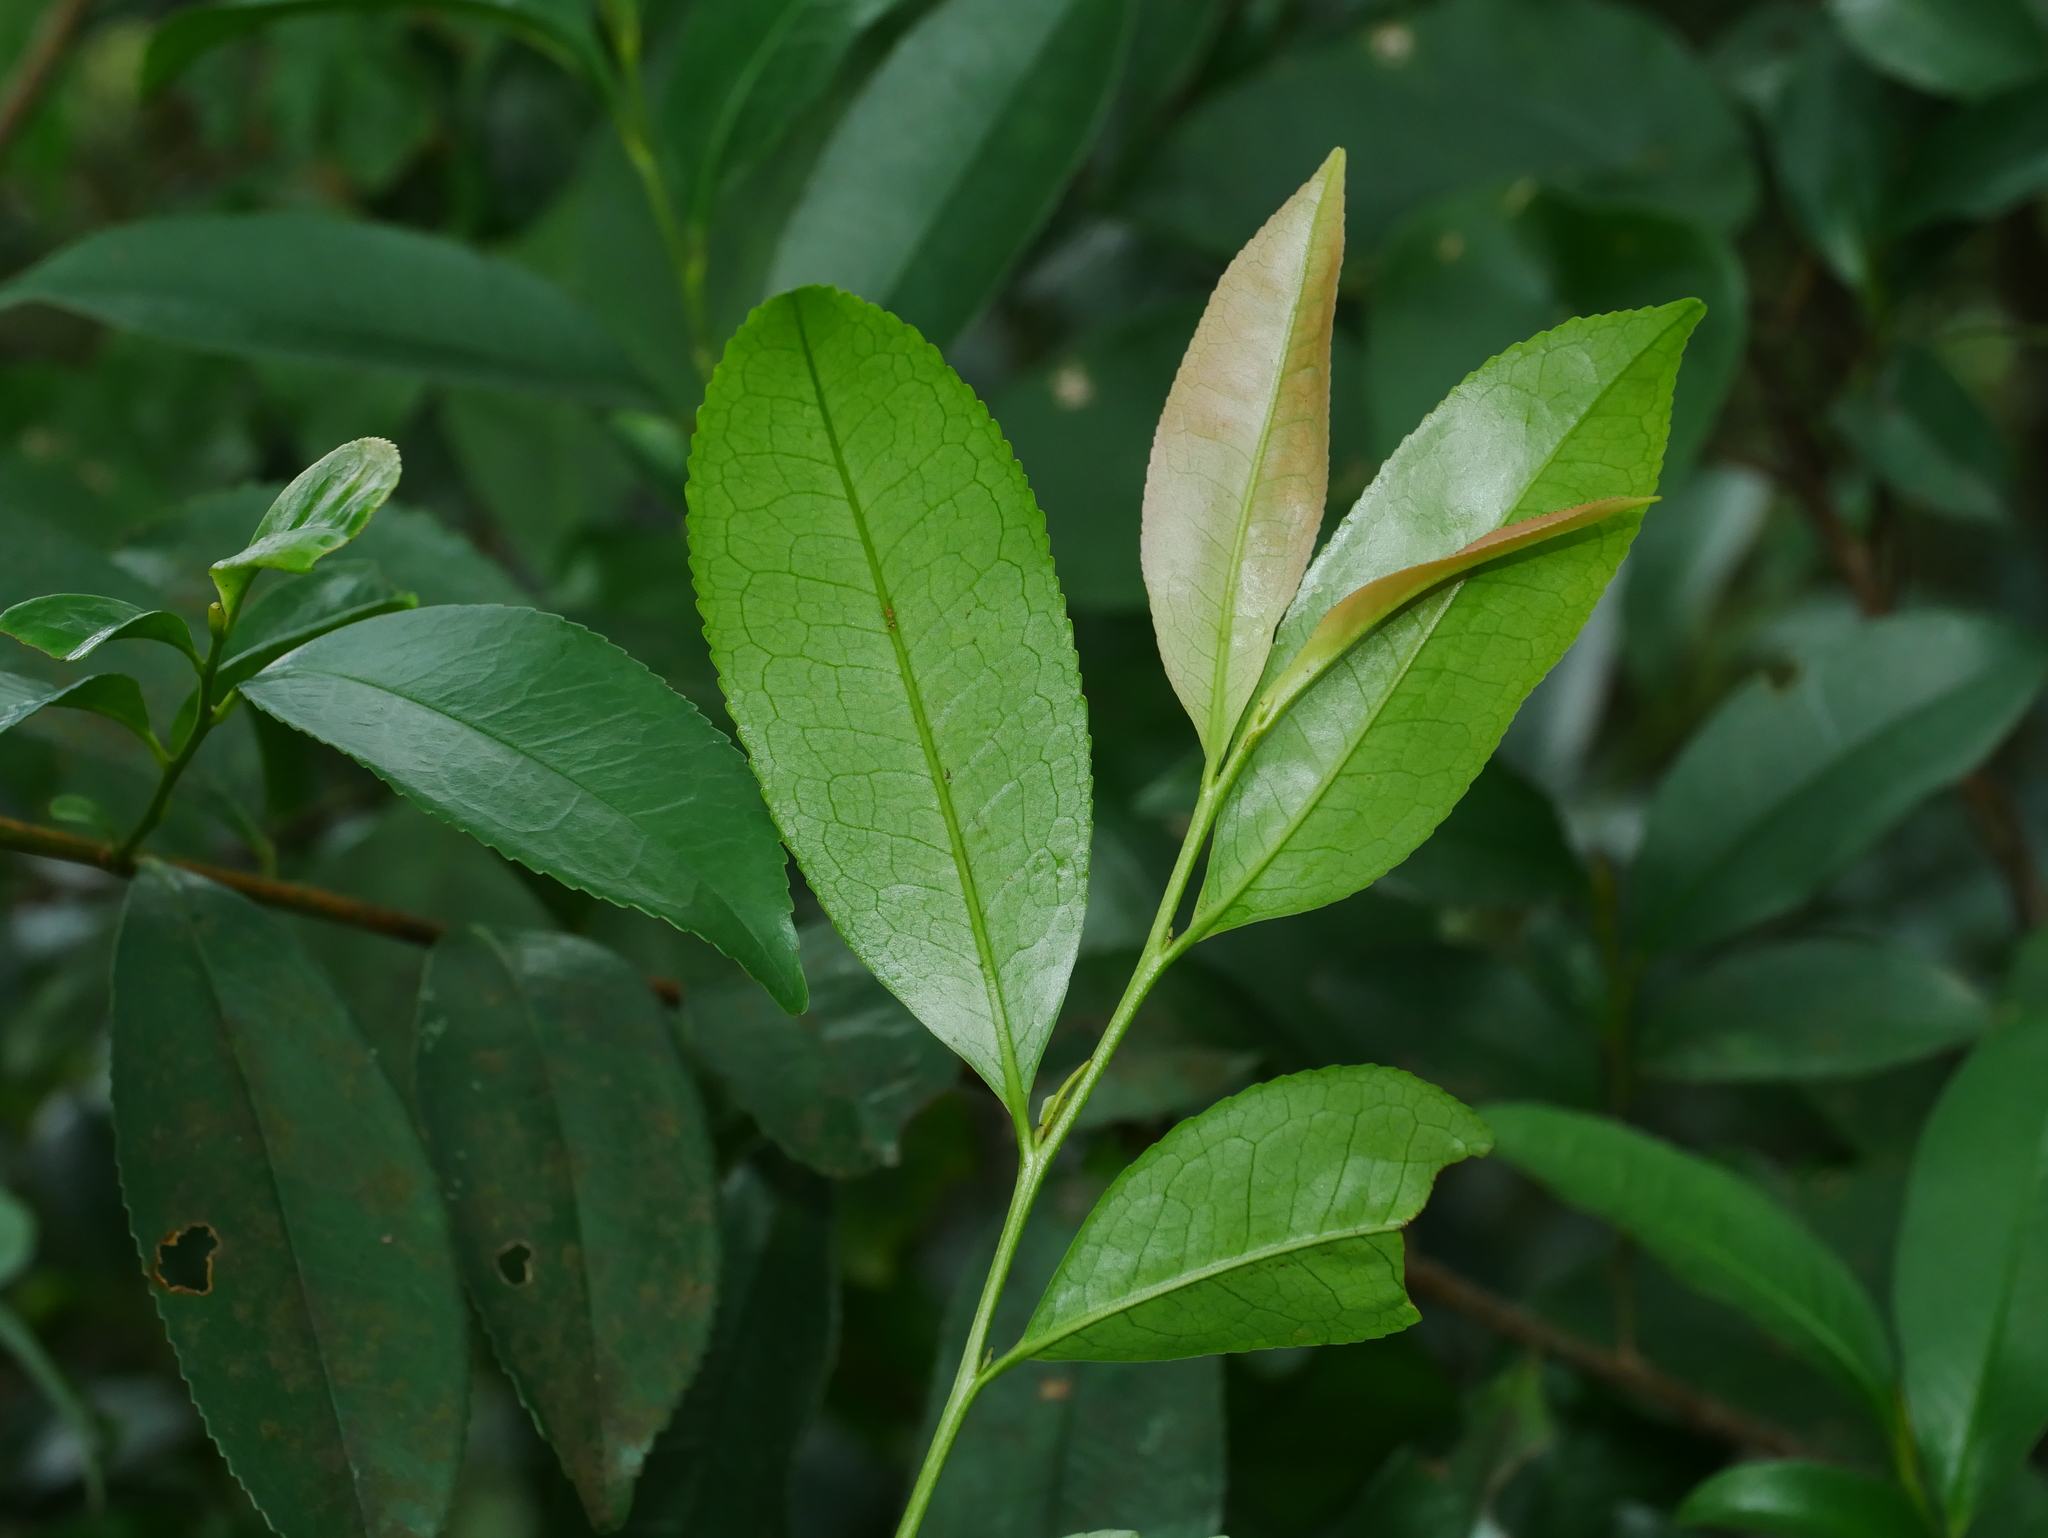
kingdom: Plantae
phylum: Tracheophyta
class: Magnoliopsida
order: Ericales
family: Pentaphylacaceae
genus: Eurya
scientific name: Eurya nitida
